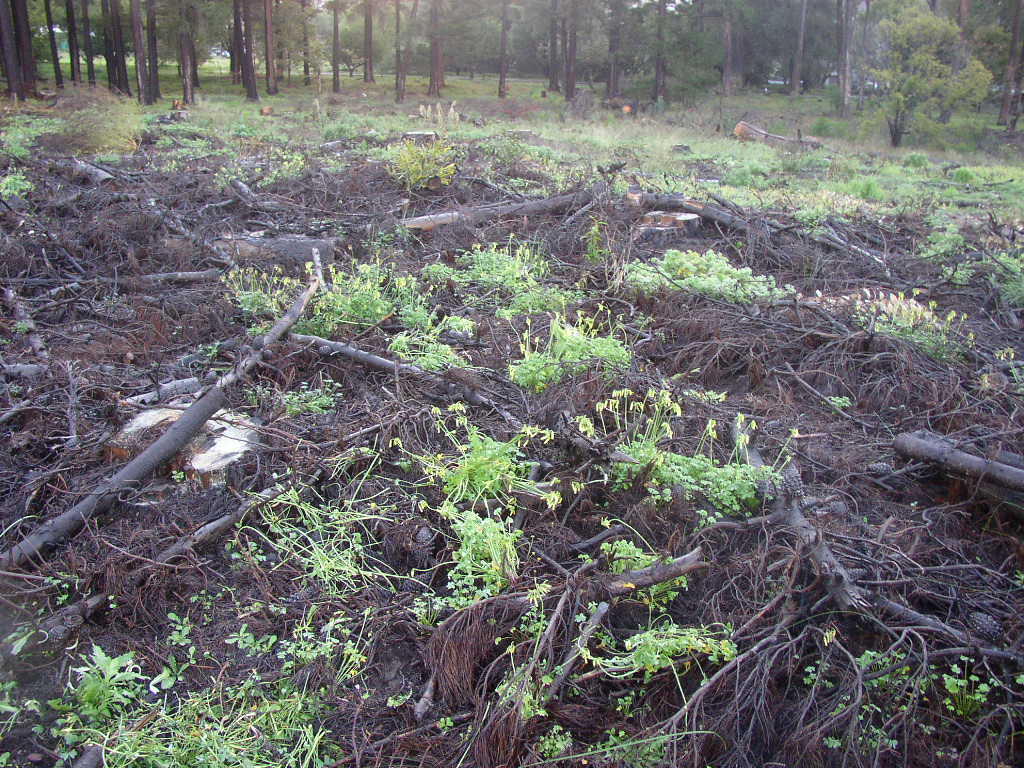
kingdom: Plantae
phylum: Tracheophyta
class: Magnoliopsida
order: Oxalidales
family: Oxalidaceae
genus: Oxalis
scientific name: Oxalis pes-caprae
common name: Bermuda-buttercup
